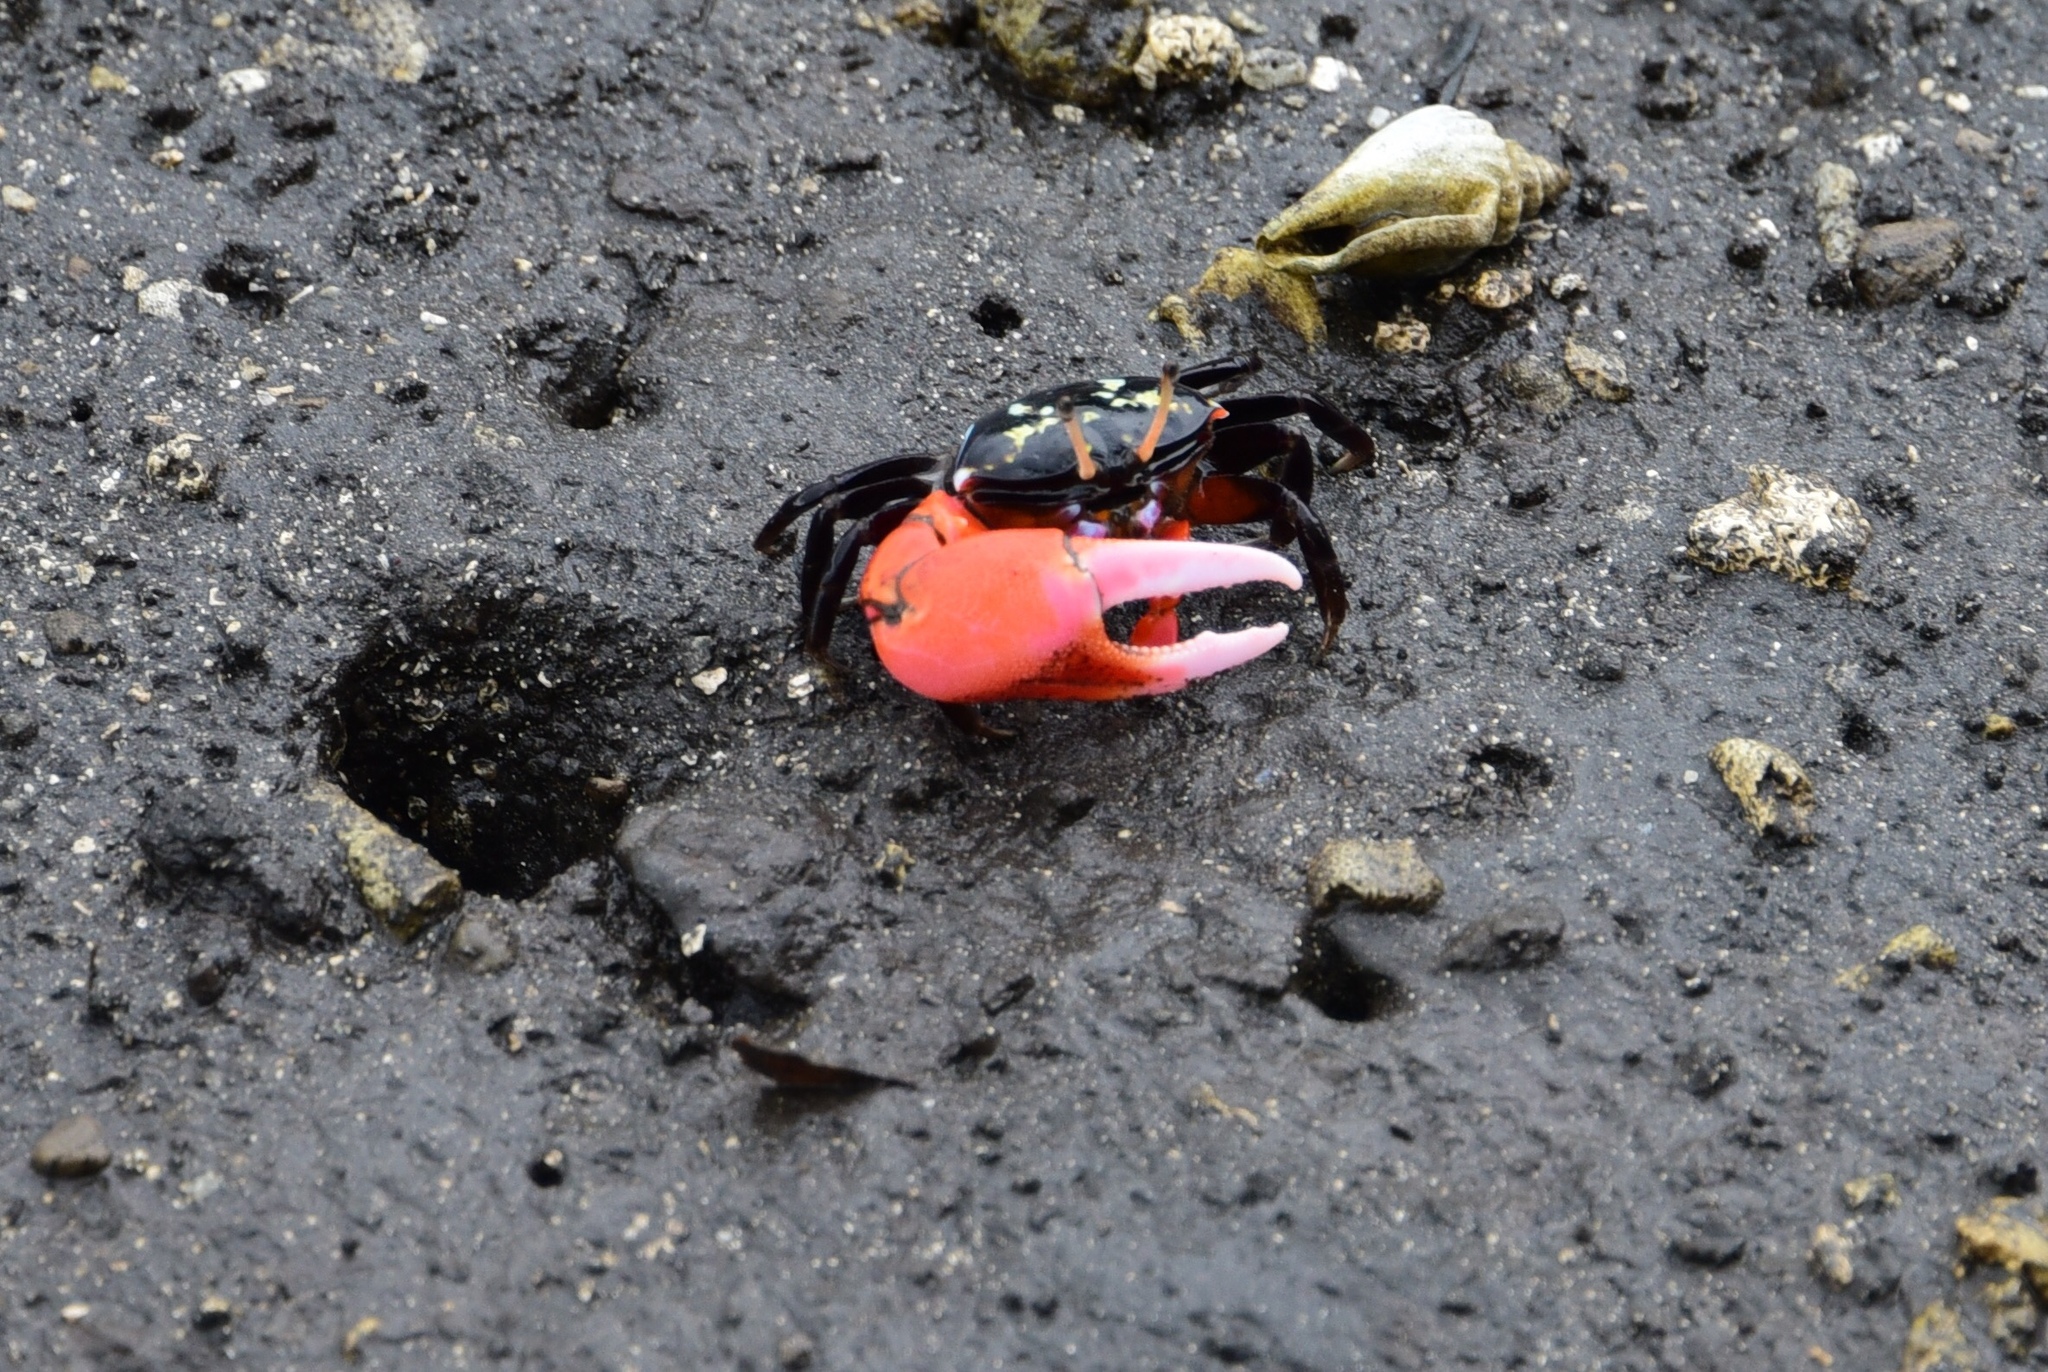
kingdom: Animalia
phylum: Arthropoda
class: Malacostraca
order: Decapoda
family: Ocypodidae
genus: Paraleptuca
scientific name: Paraleptuca crassipes
